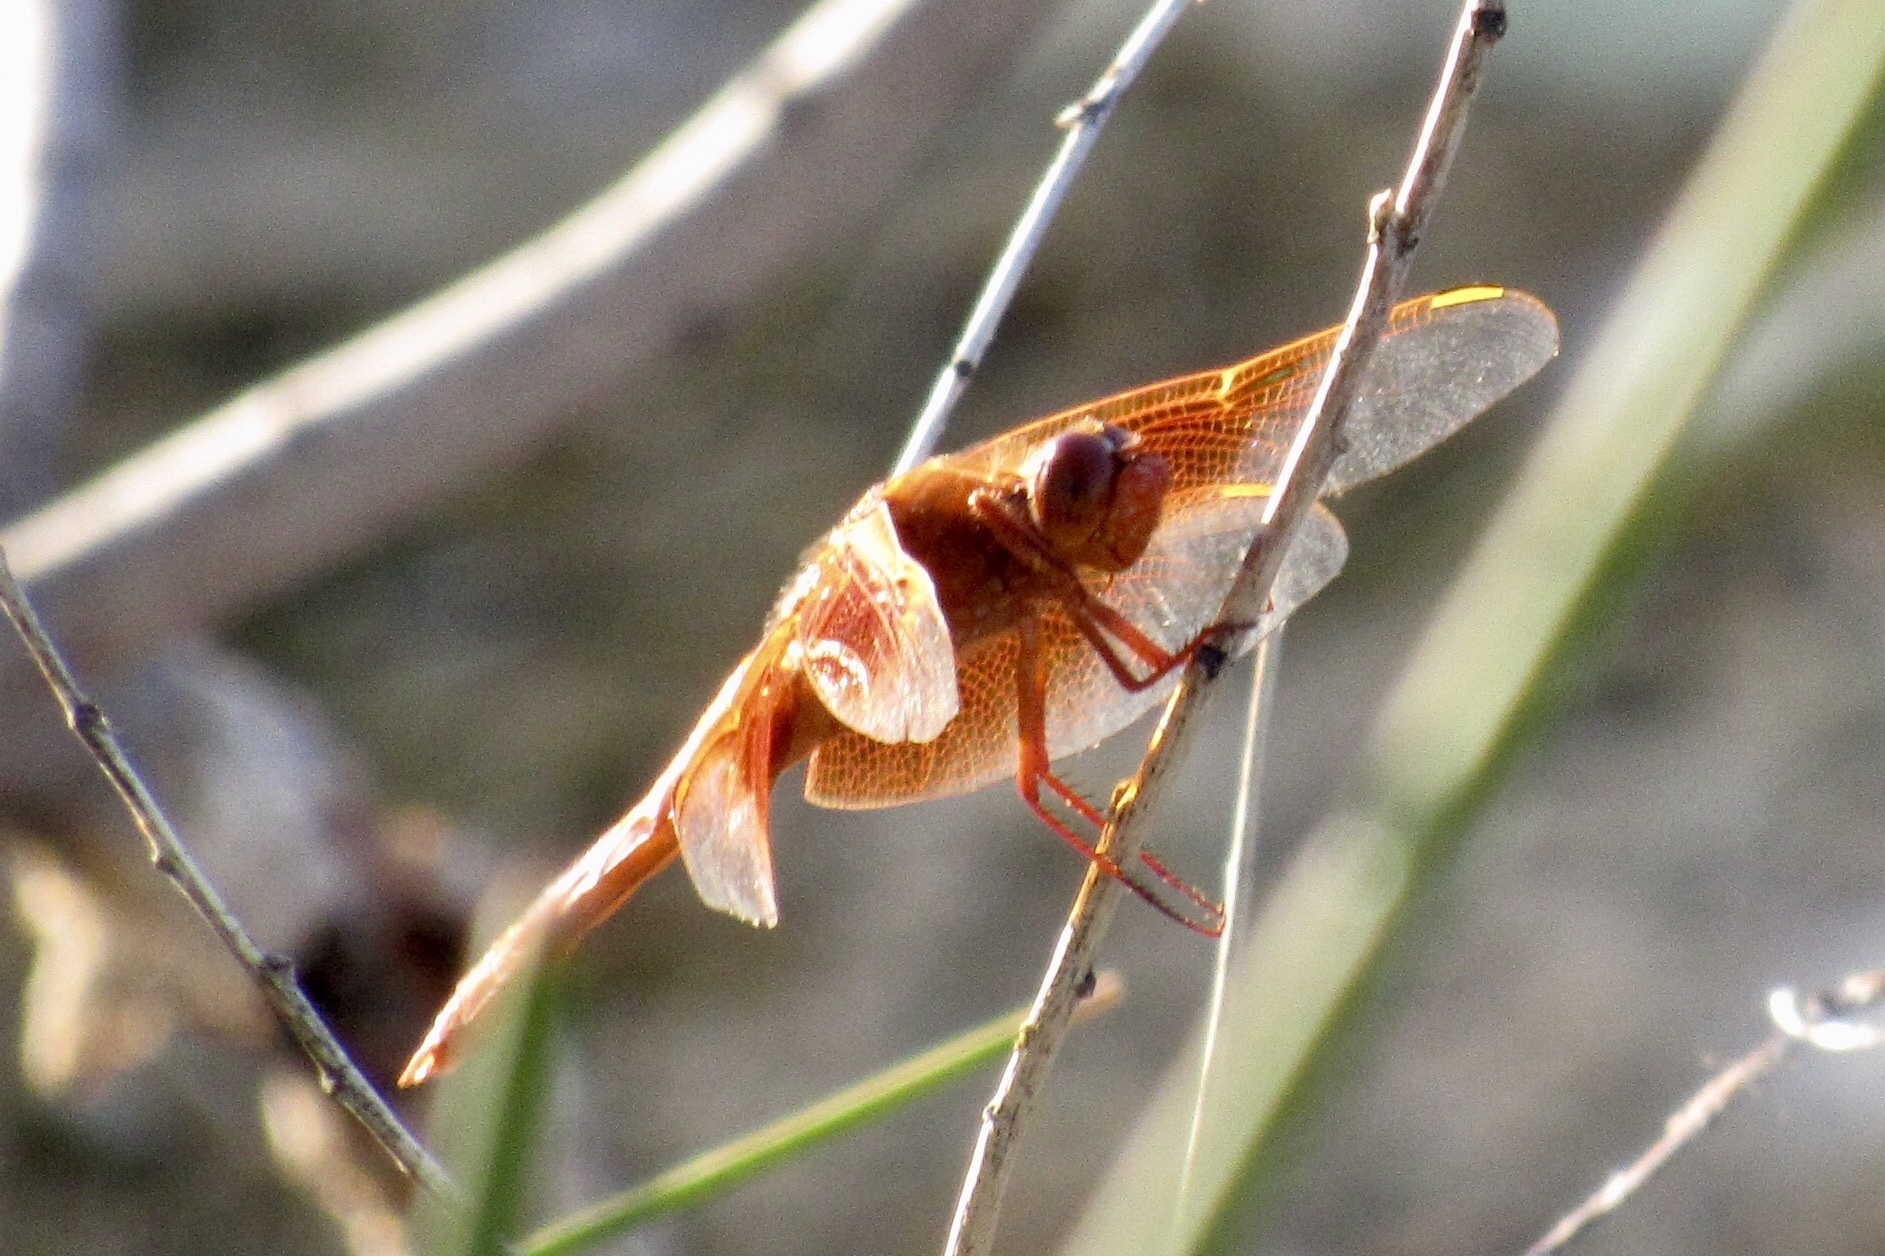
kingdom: Animalia
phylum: Arthropoda
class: Insecta
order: Odonata
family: Libellulidae
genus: Libellula
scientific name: Libellula saturata
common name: Flame skimmer
